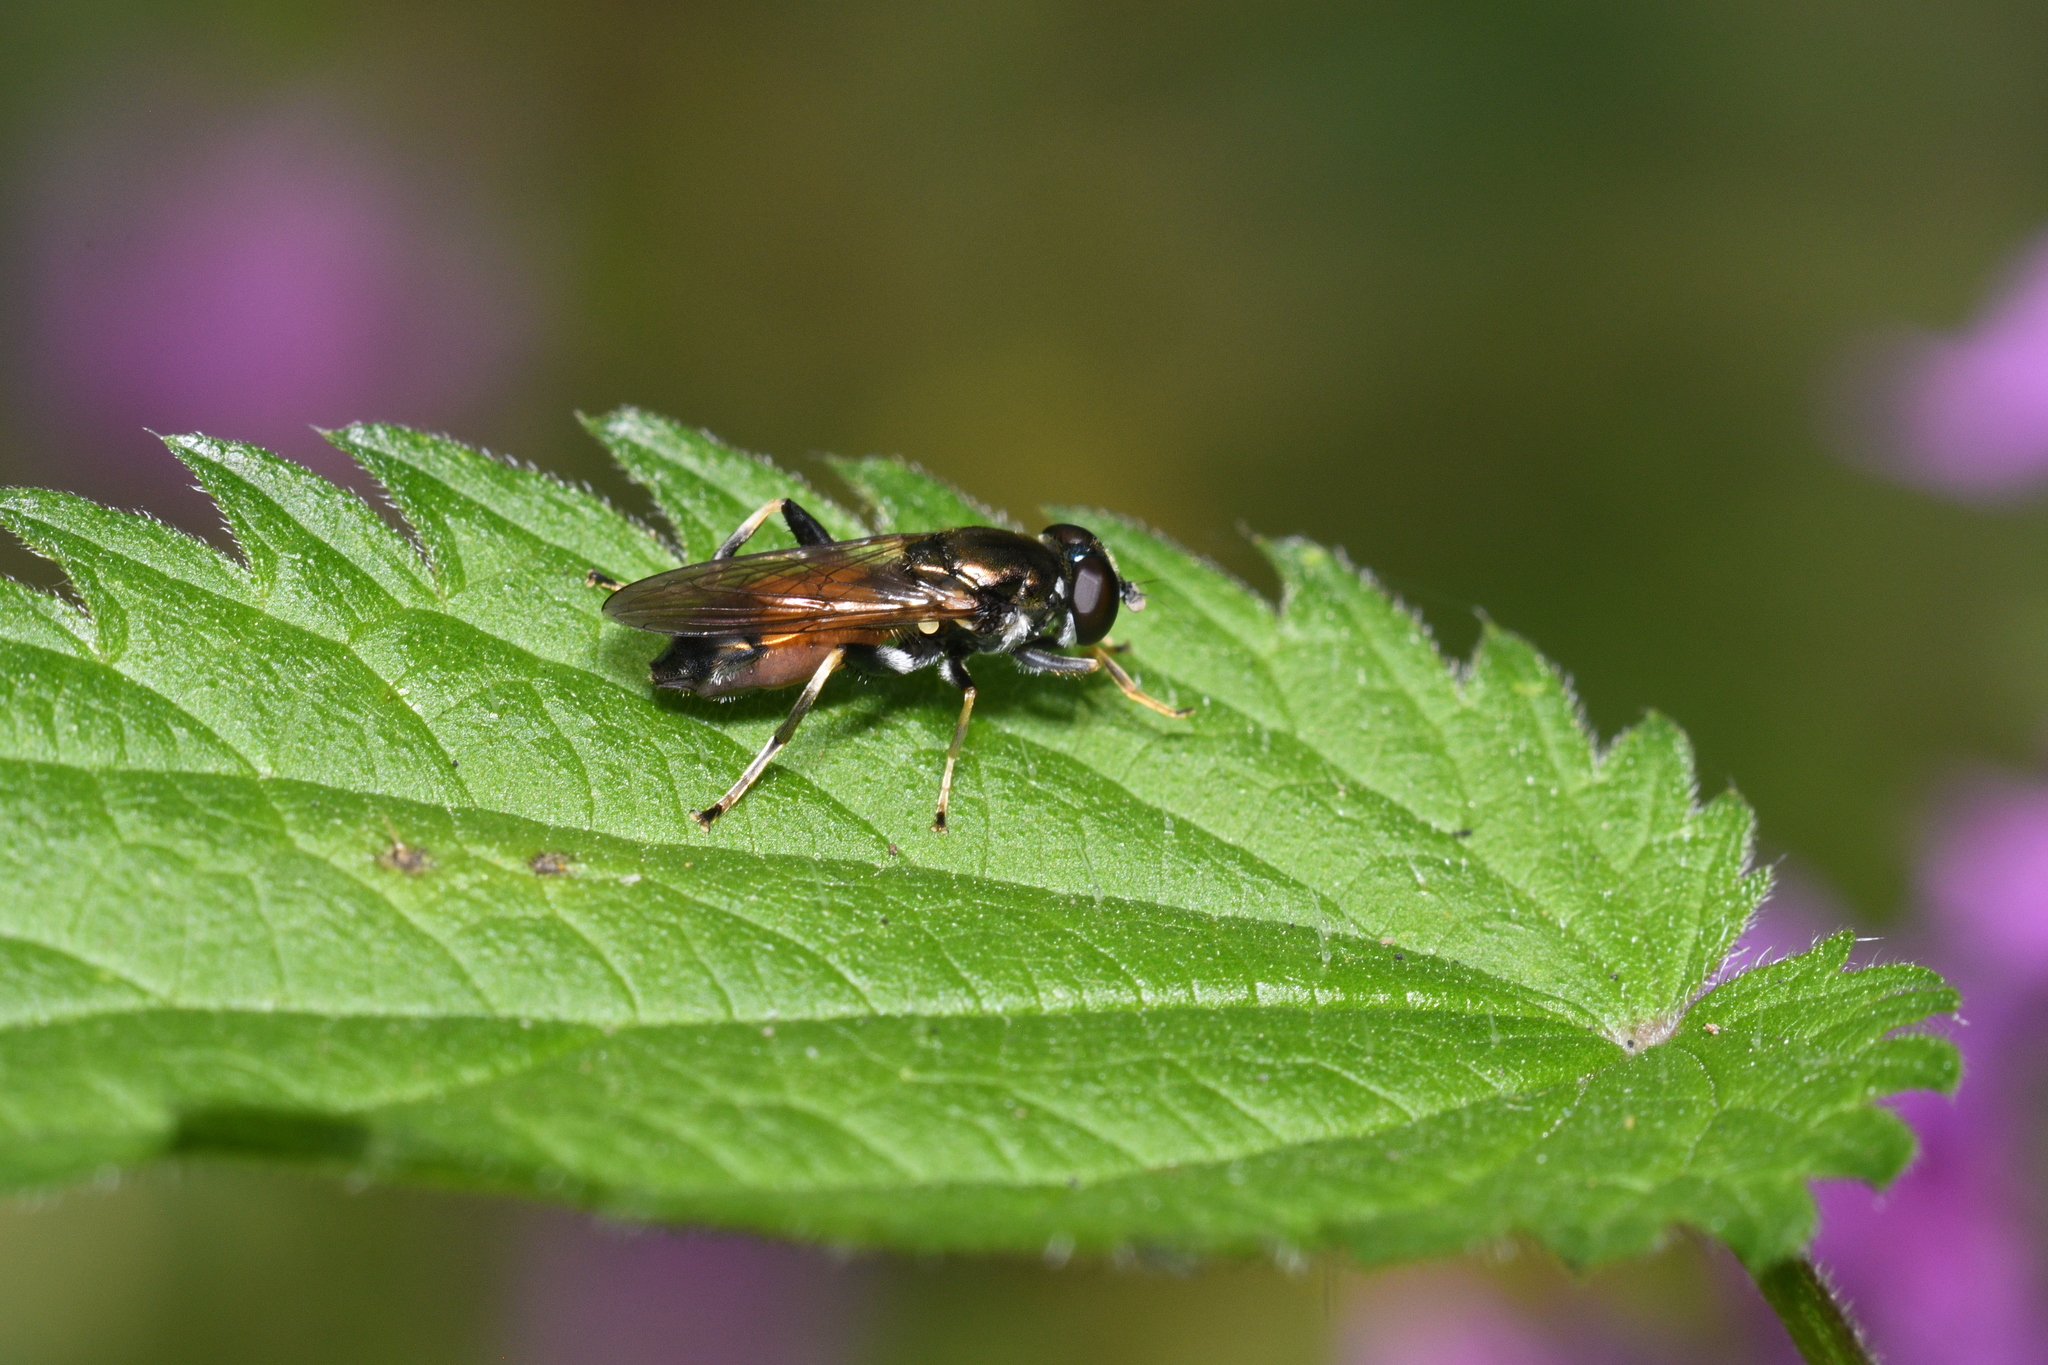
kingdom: Animalia
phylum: Arthropoda
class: Insecta
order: Diptera
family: Syrphidae
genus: Xylota
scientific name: Xylota segnis
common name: Brown-toed forest fly
